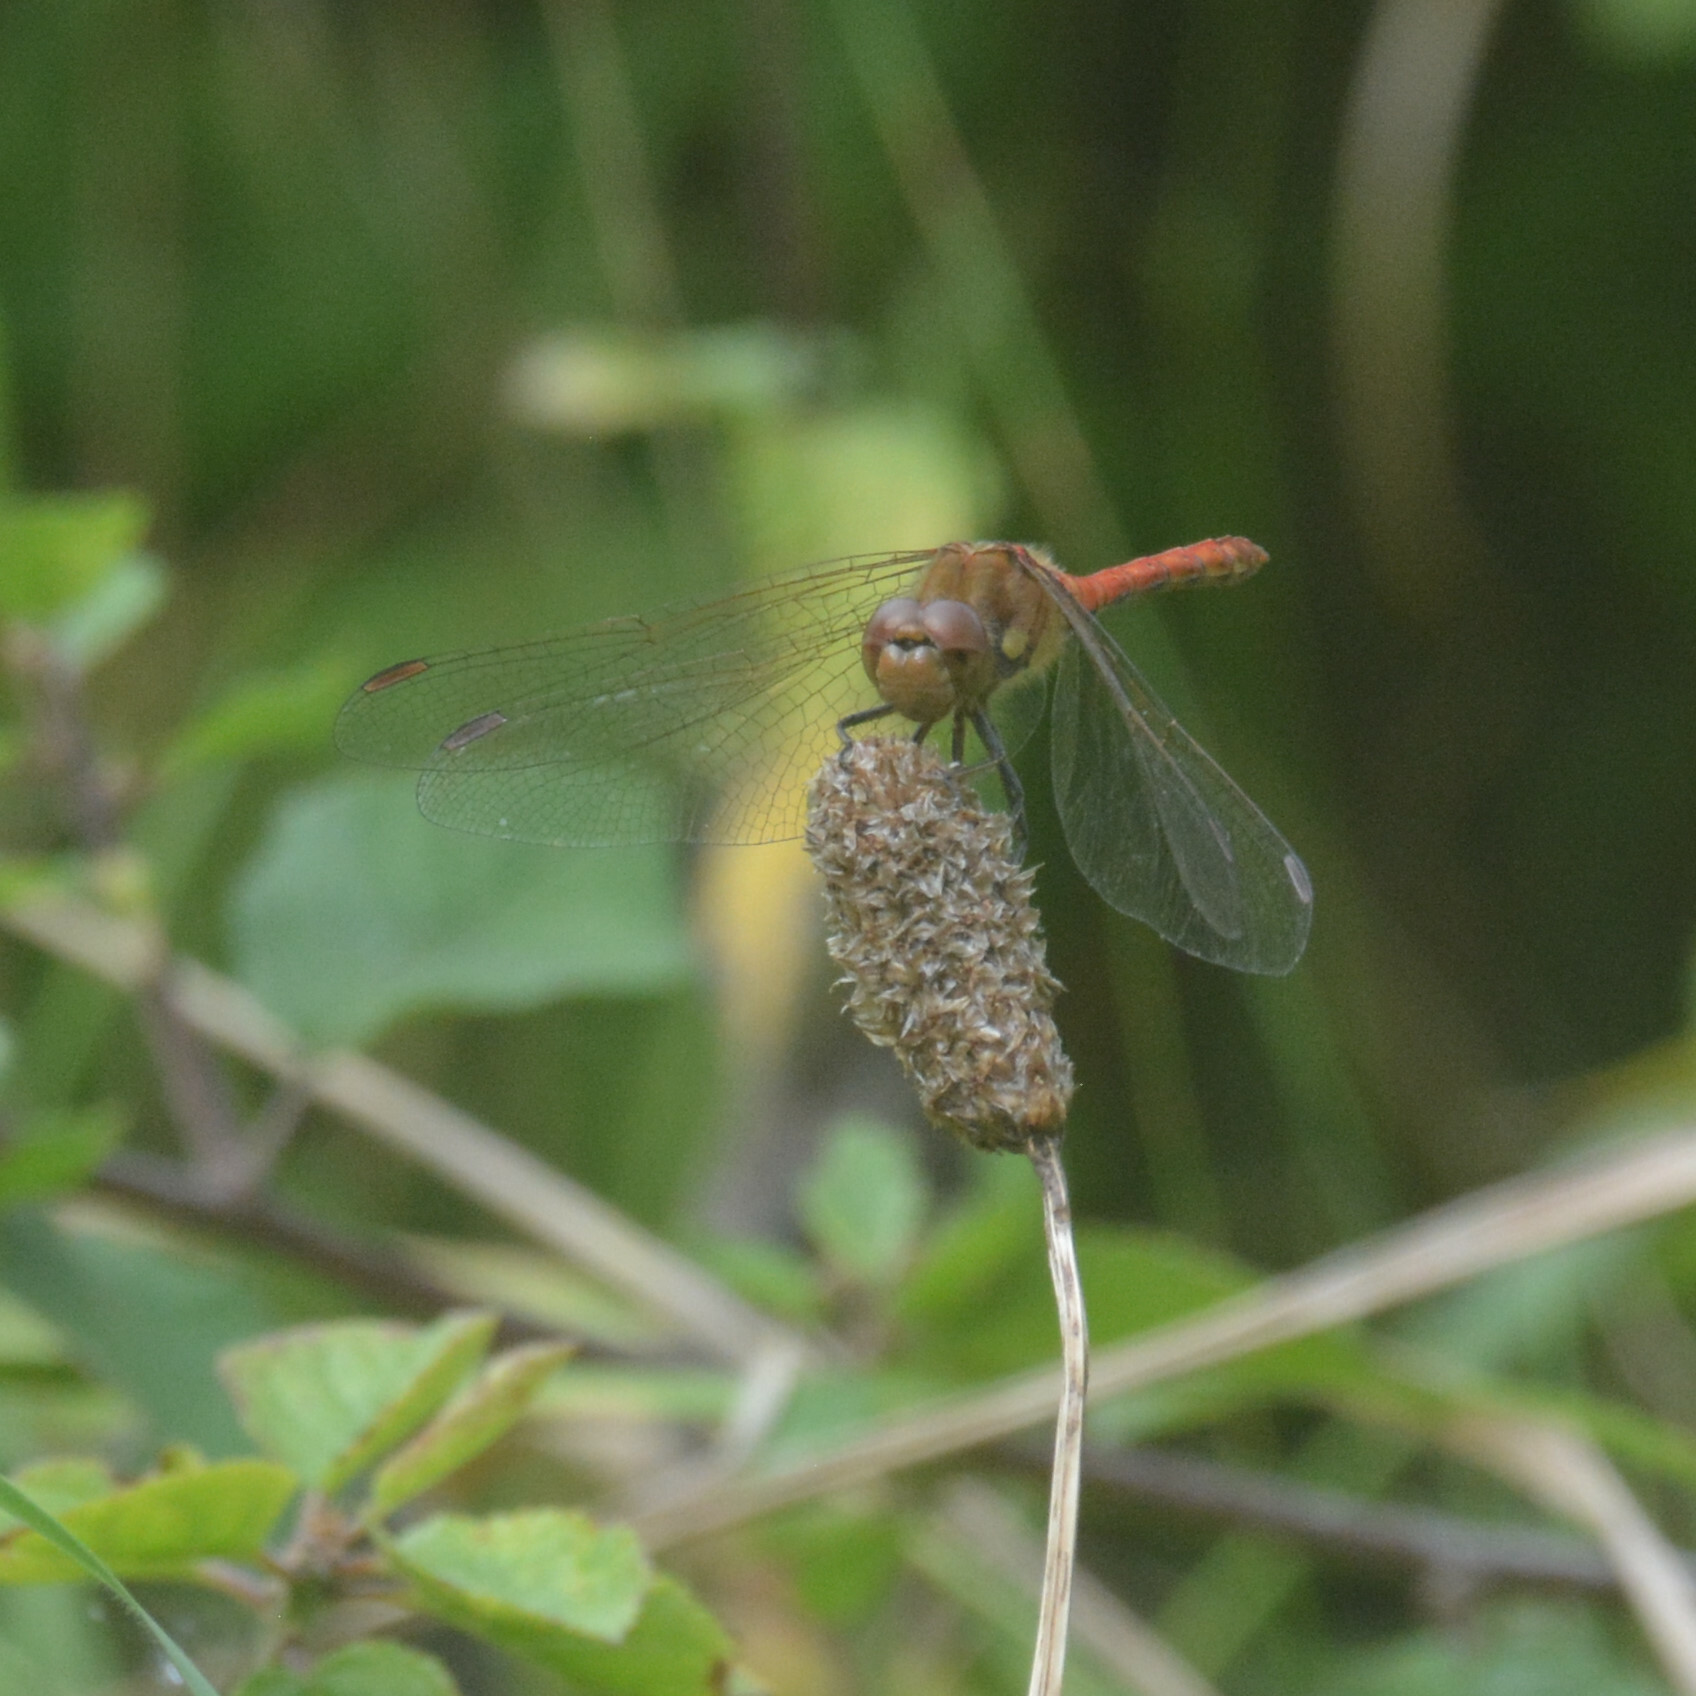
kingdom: Animalia
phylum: Arthropoda
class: Insecta
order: Odonata
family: Libellulidae
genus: Sympetrum
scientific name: Sympetrum striolatum
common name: Common darter
